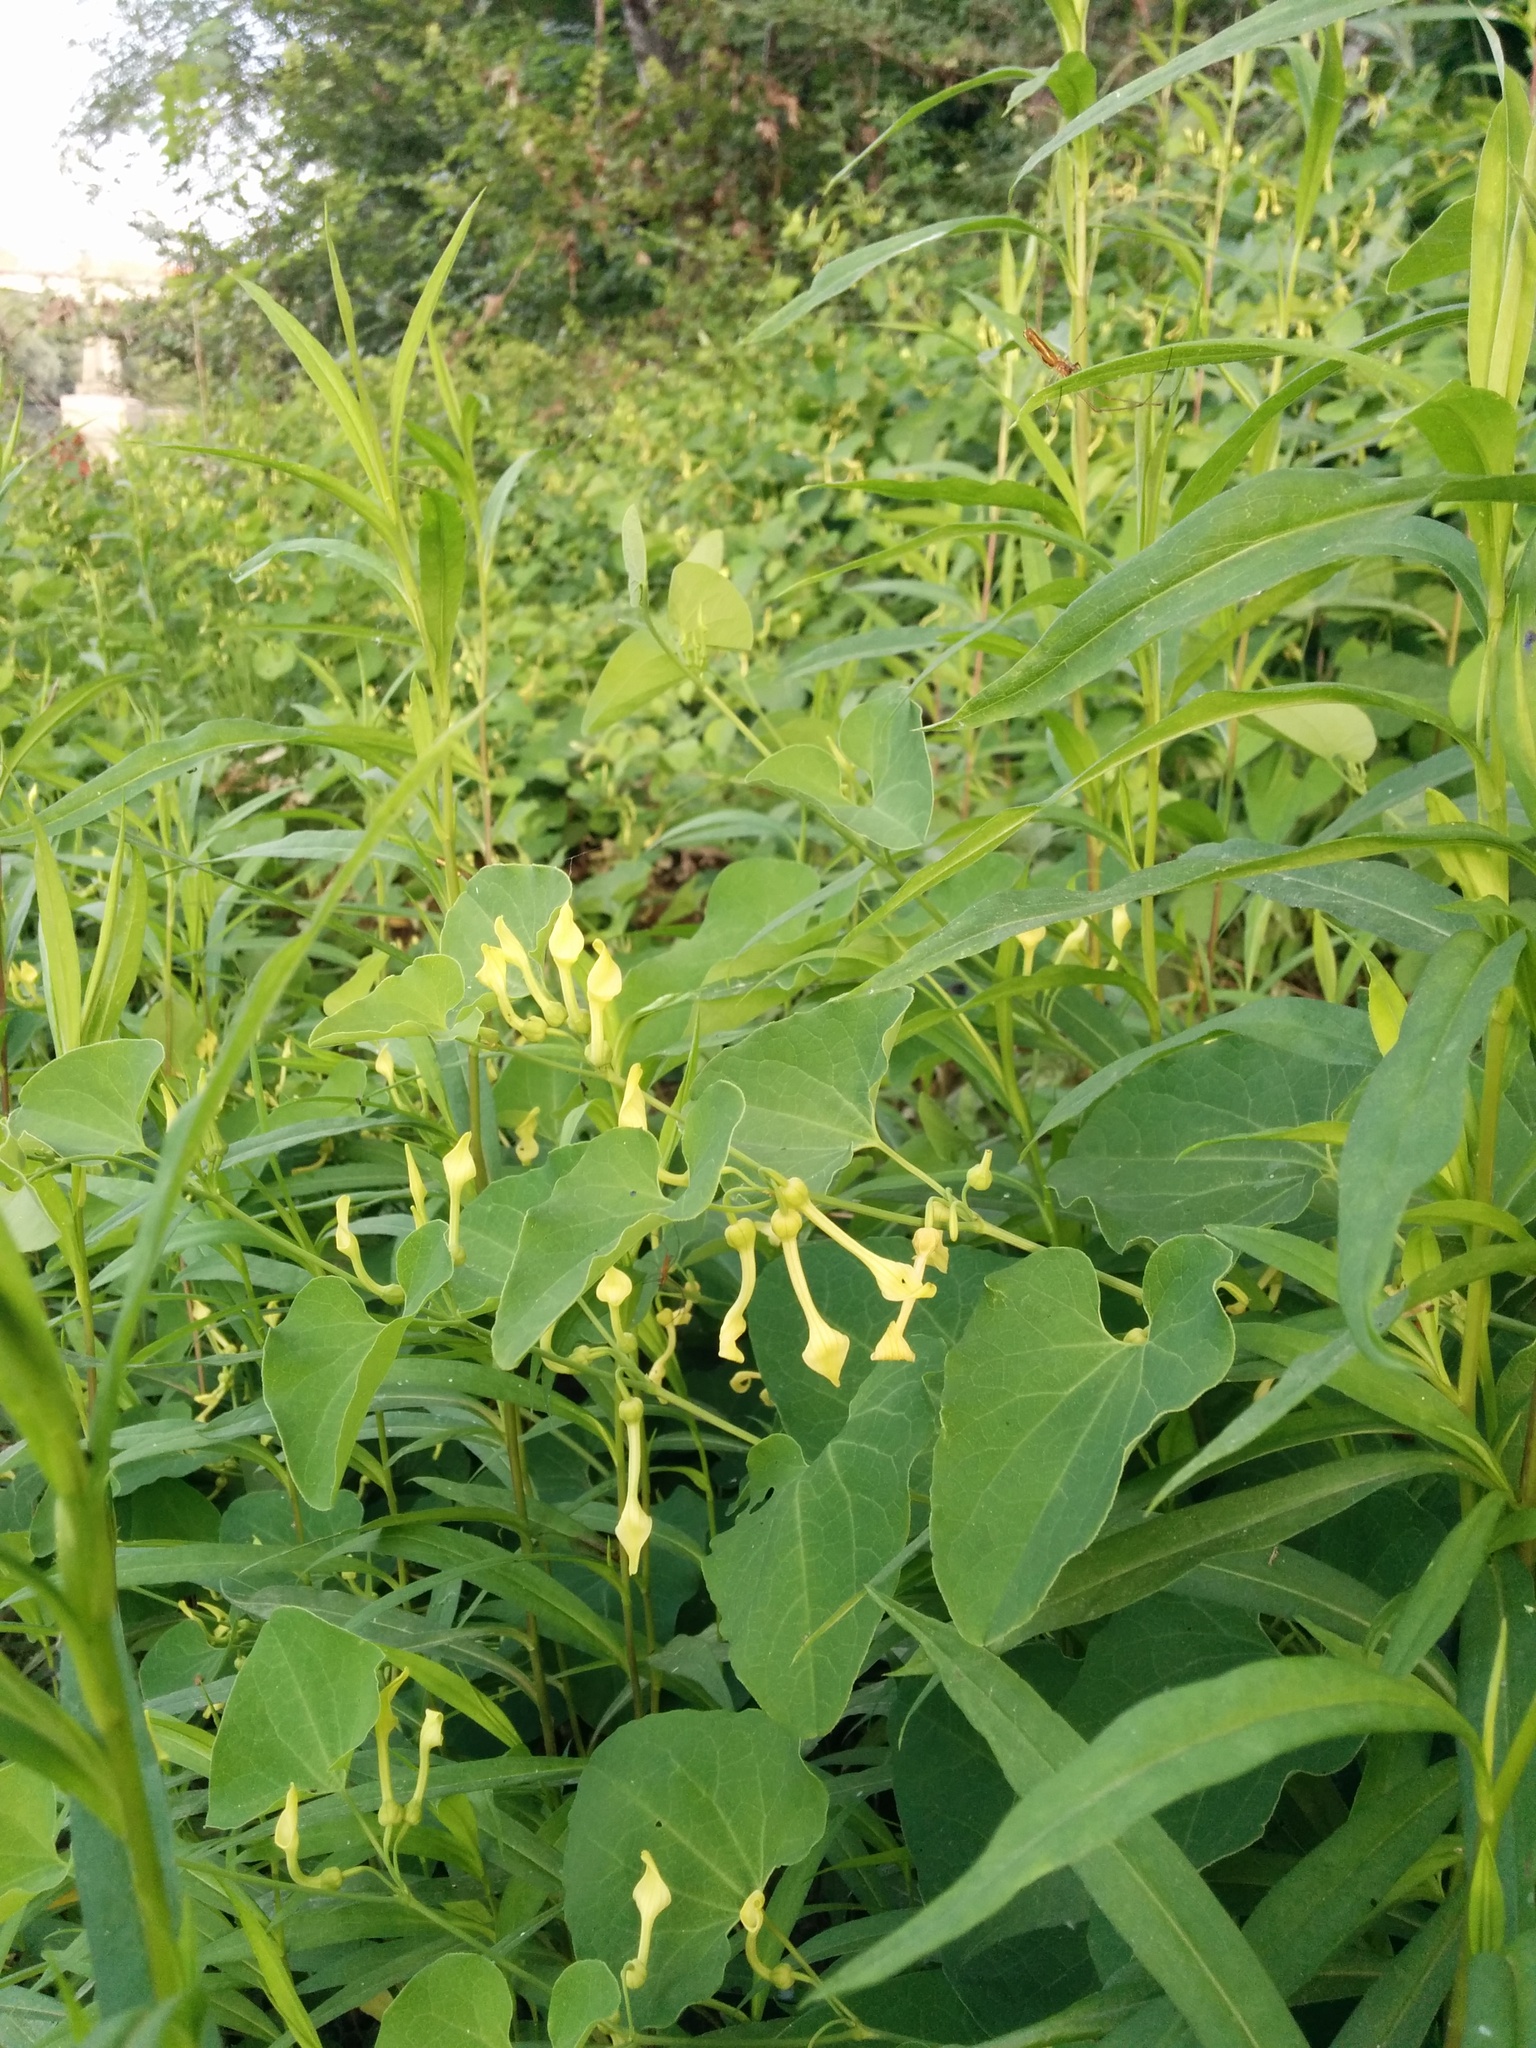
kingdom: Plantae
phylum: Tracheophyta
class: Magnoliopsida
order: Piperales
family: Aristolochiaceae
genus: Aristolochia
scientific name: Aristolochia clematitis
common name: Birthwort
